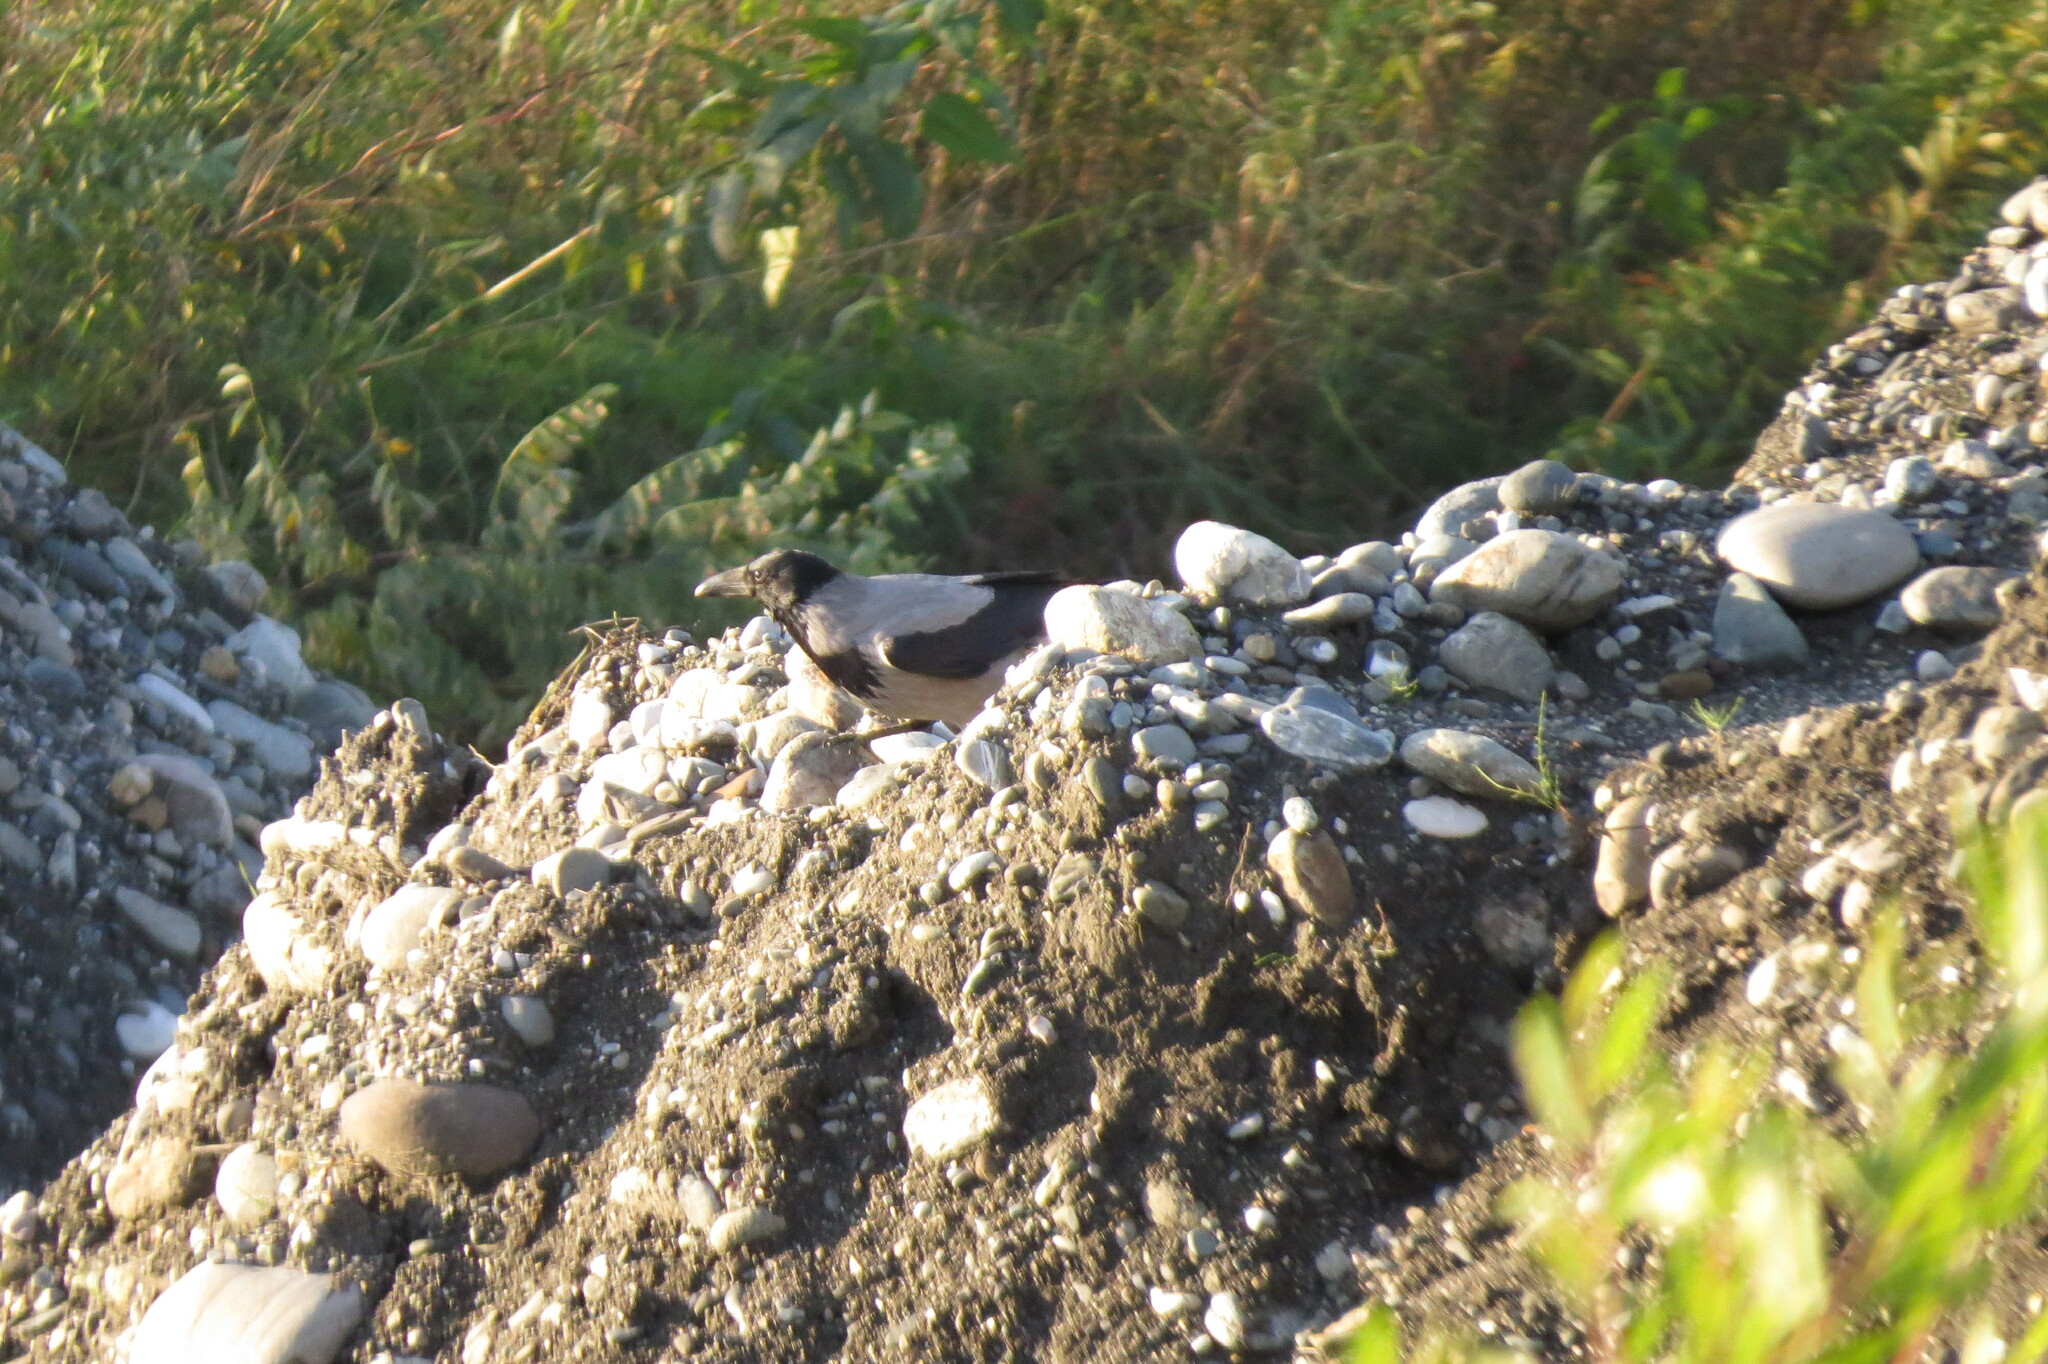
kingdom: Animalia
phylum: Chordata
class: Aves
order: Passeriformes
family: Corvidae
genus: Corvus
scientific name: Corvus cornix
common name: Hooded crow
